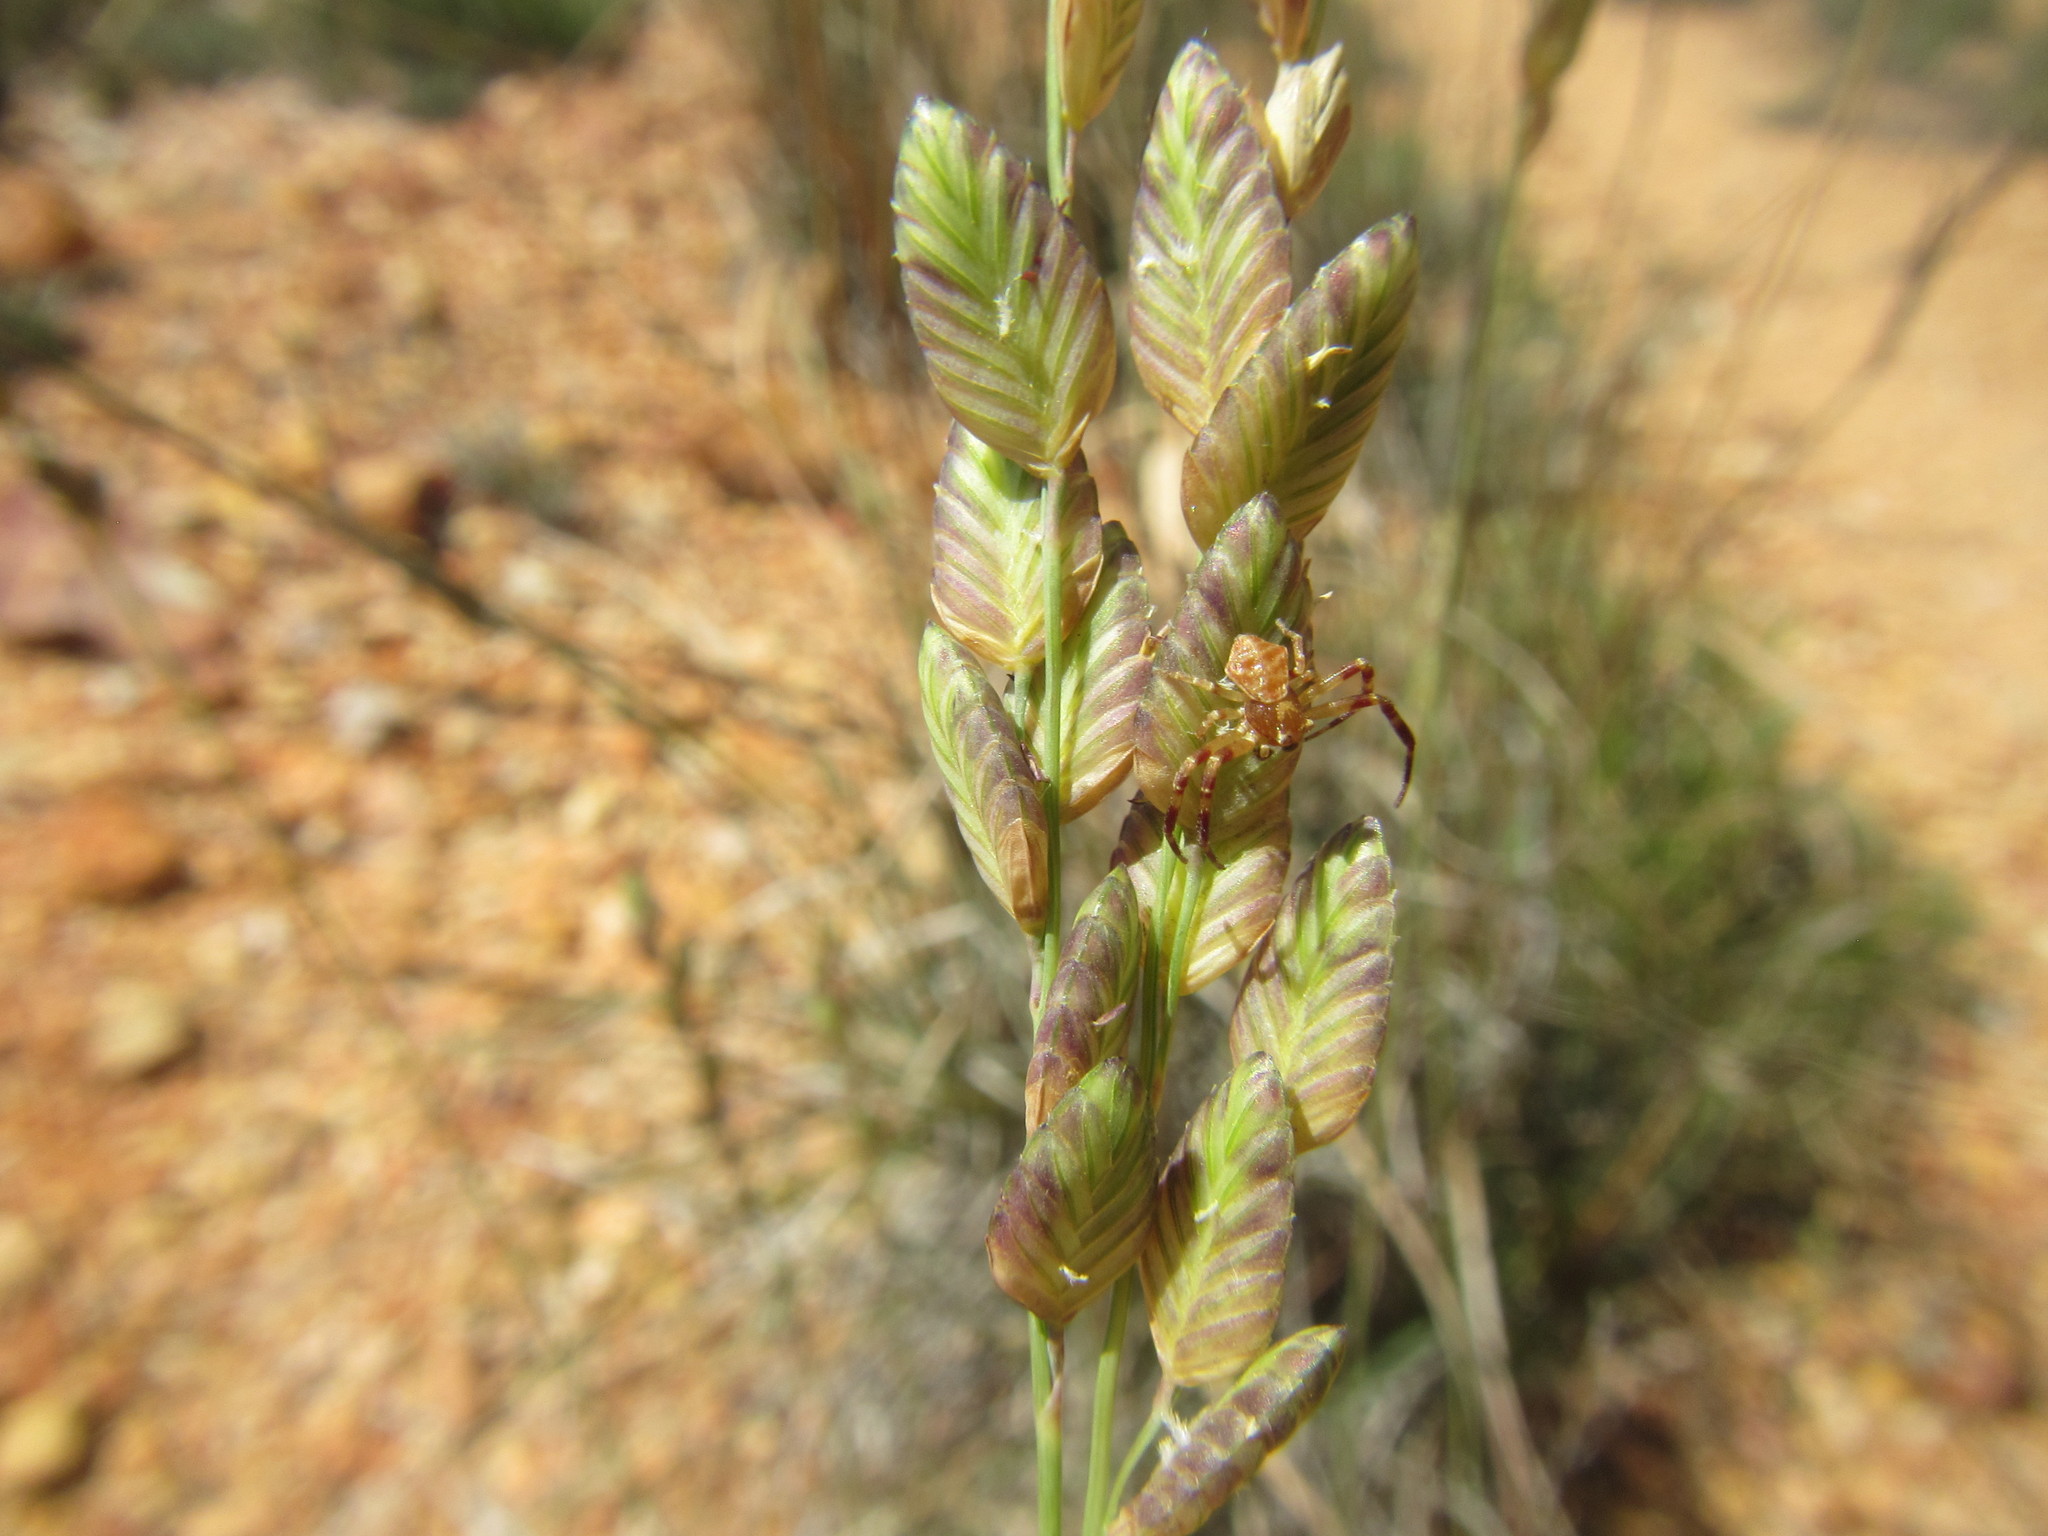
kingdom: Plantae
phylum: Tracheophyta
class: Liliopsida
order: Poales
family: Poaceae
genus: Eragrostis
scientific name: Eragrostis capensis
